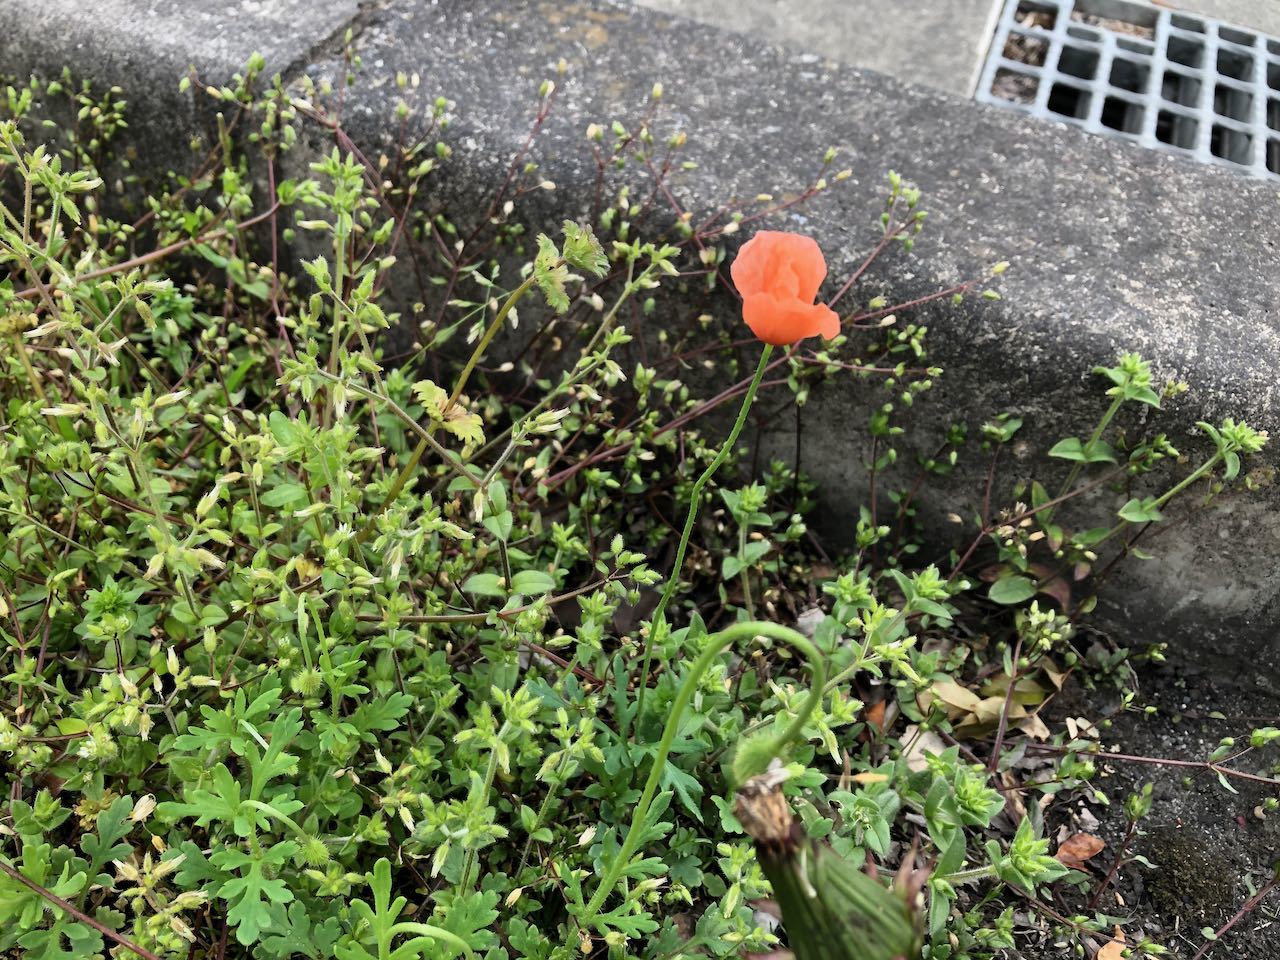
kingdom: Plantae
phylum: Tracheophyta
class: Magnoliopsida
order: Ranunculales
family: Papaveraceae
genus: Papaver
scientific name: Papaver dubium
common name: Long-headed poppy
